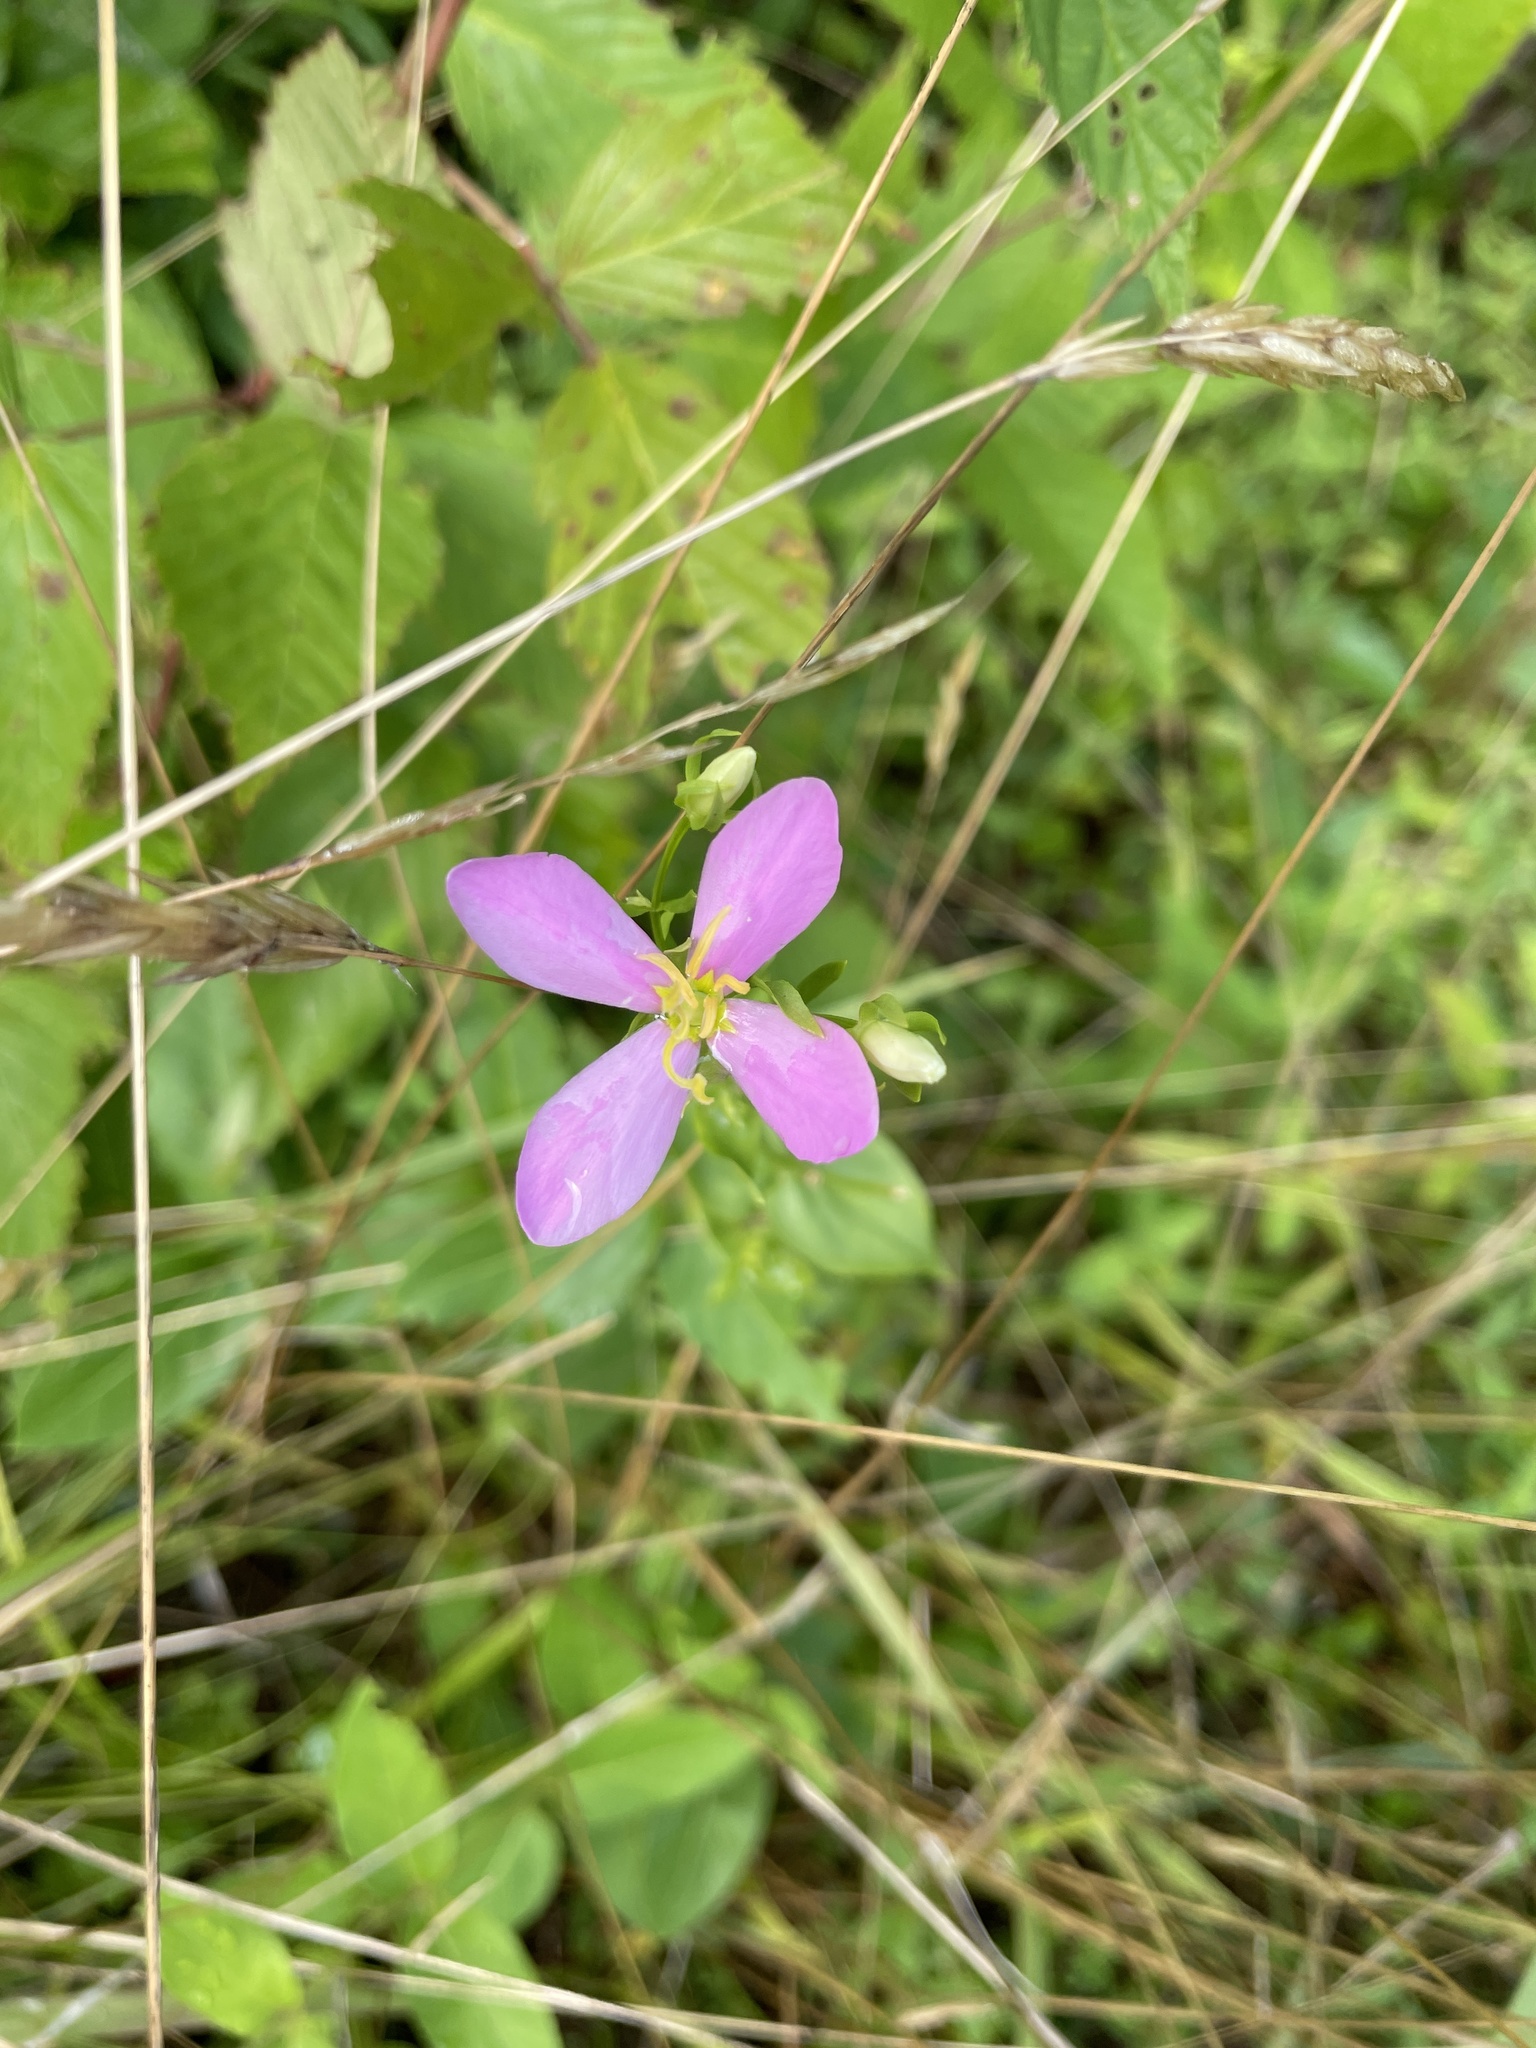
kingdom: Plantae
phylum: Tracheophyta
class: Magnoliopsida
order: Gentianales
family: Gentianaceae
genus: Sabatia
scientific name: Sabatia angularis
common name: Rose-pink
